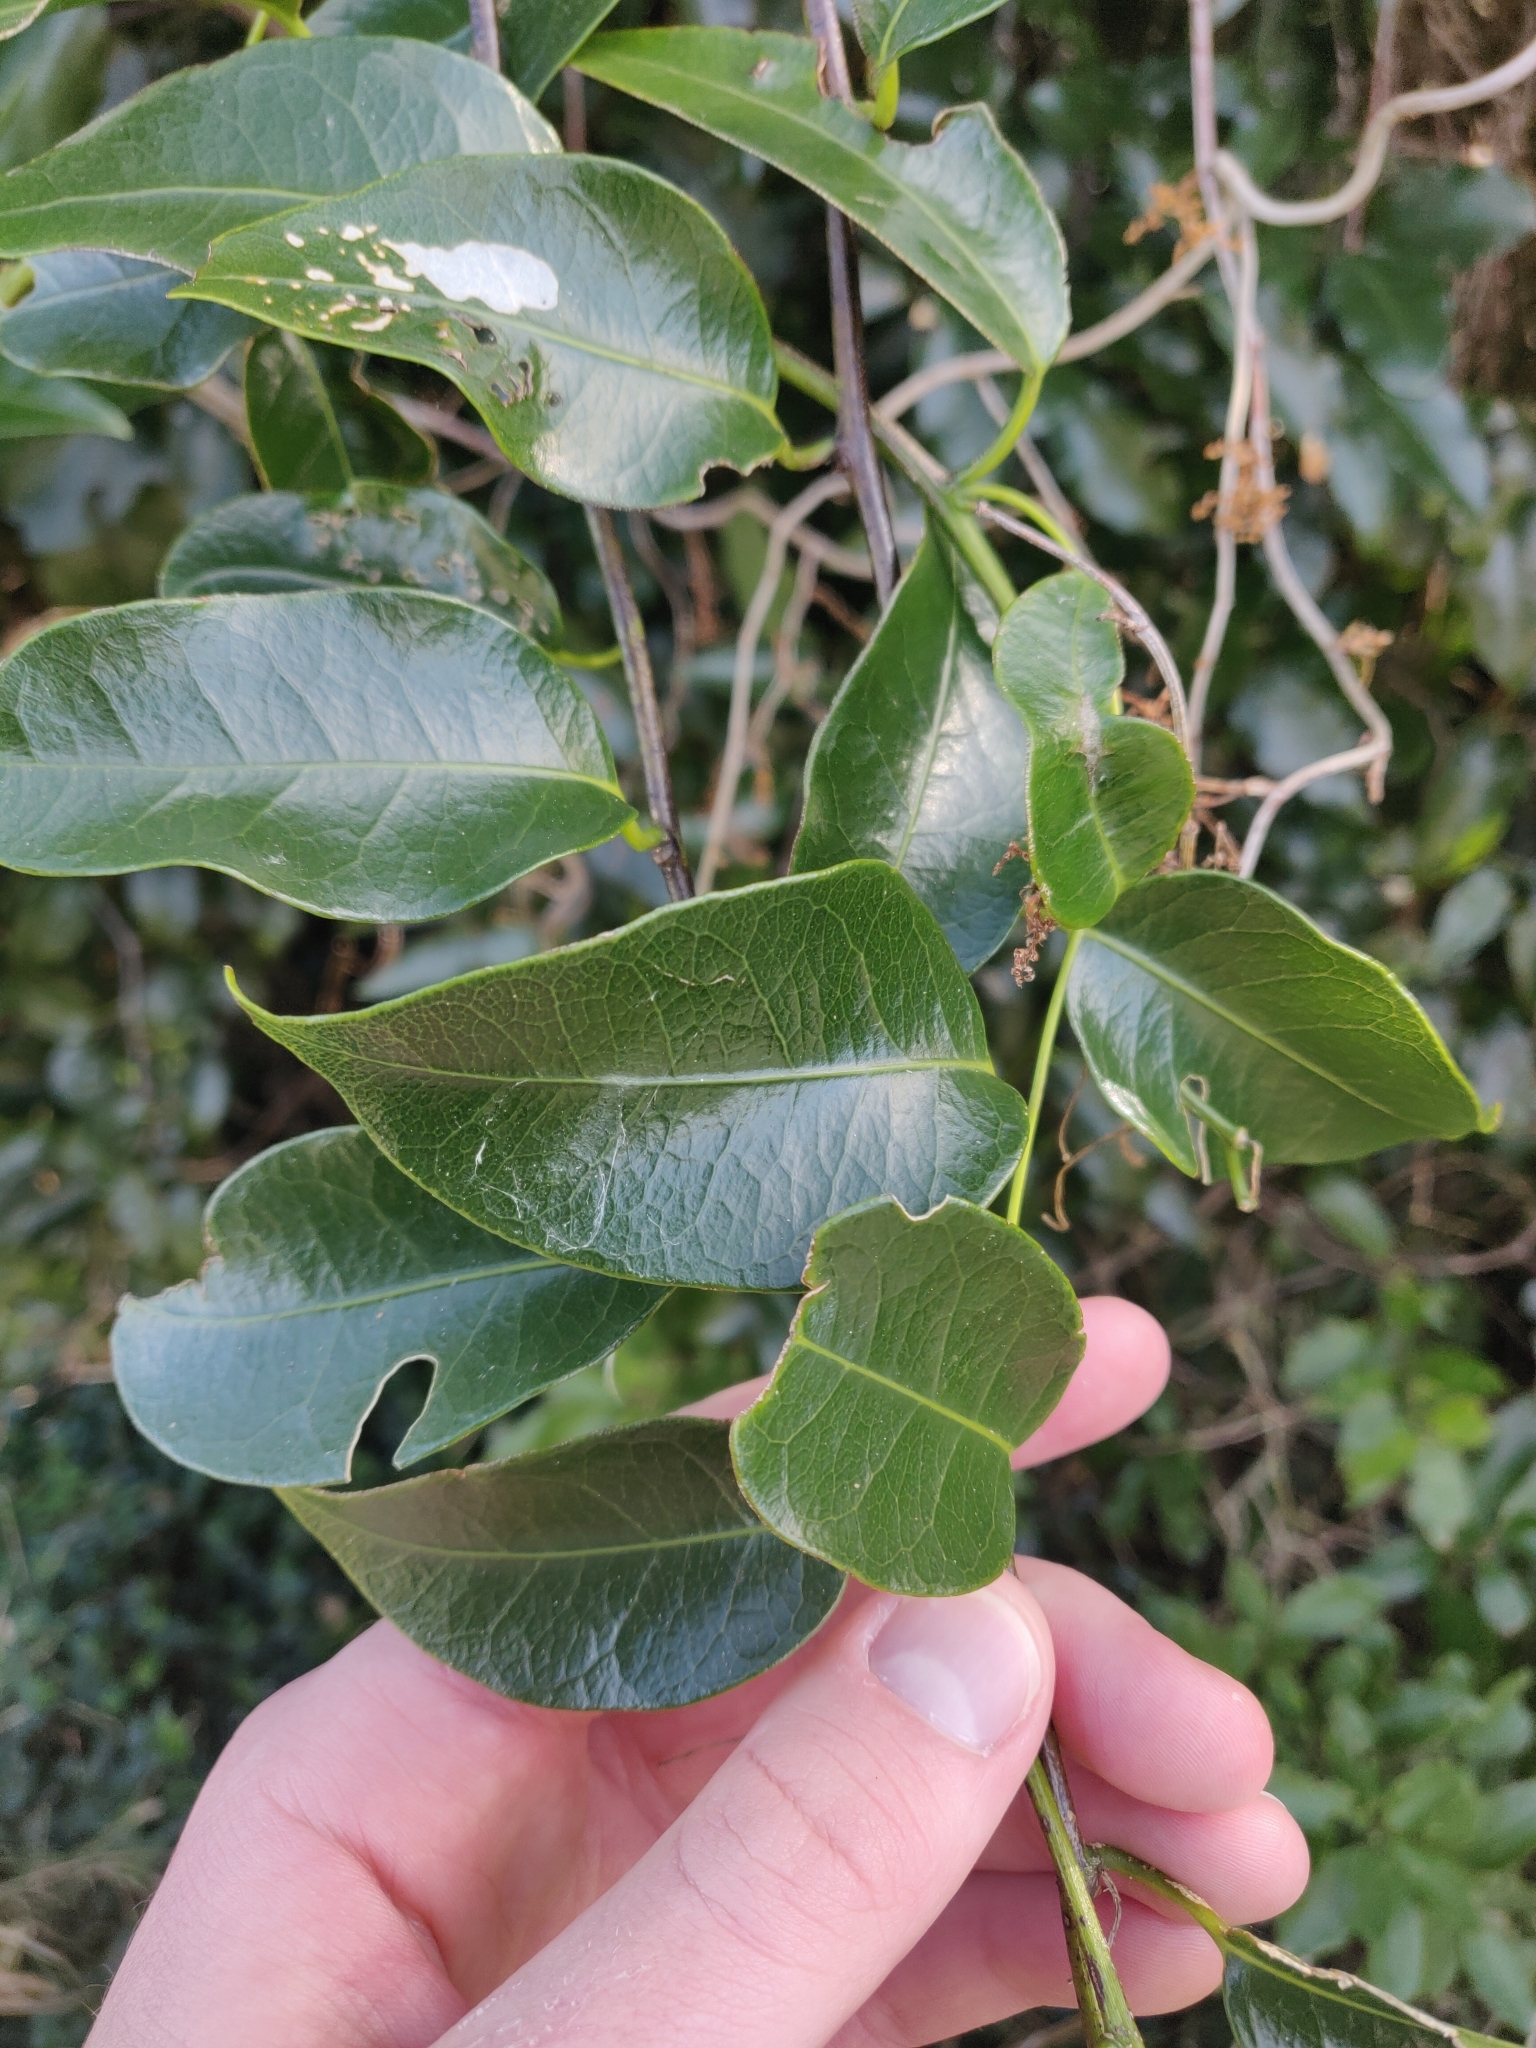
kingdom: Plantae
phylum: Tracheophyta
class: Magnoliopsida
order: Malpighiales
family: Passifloraceae
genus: Passiflora
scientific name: Passiflora tetrandra
